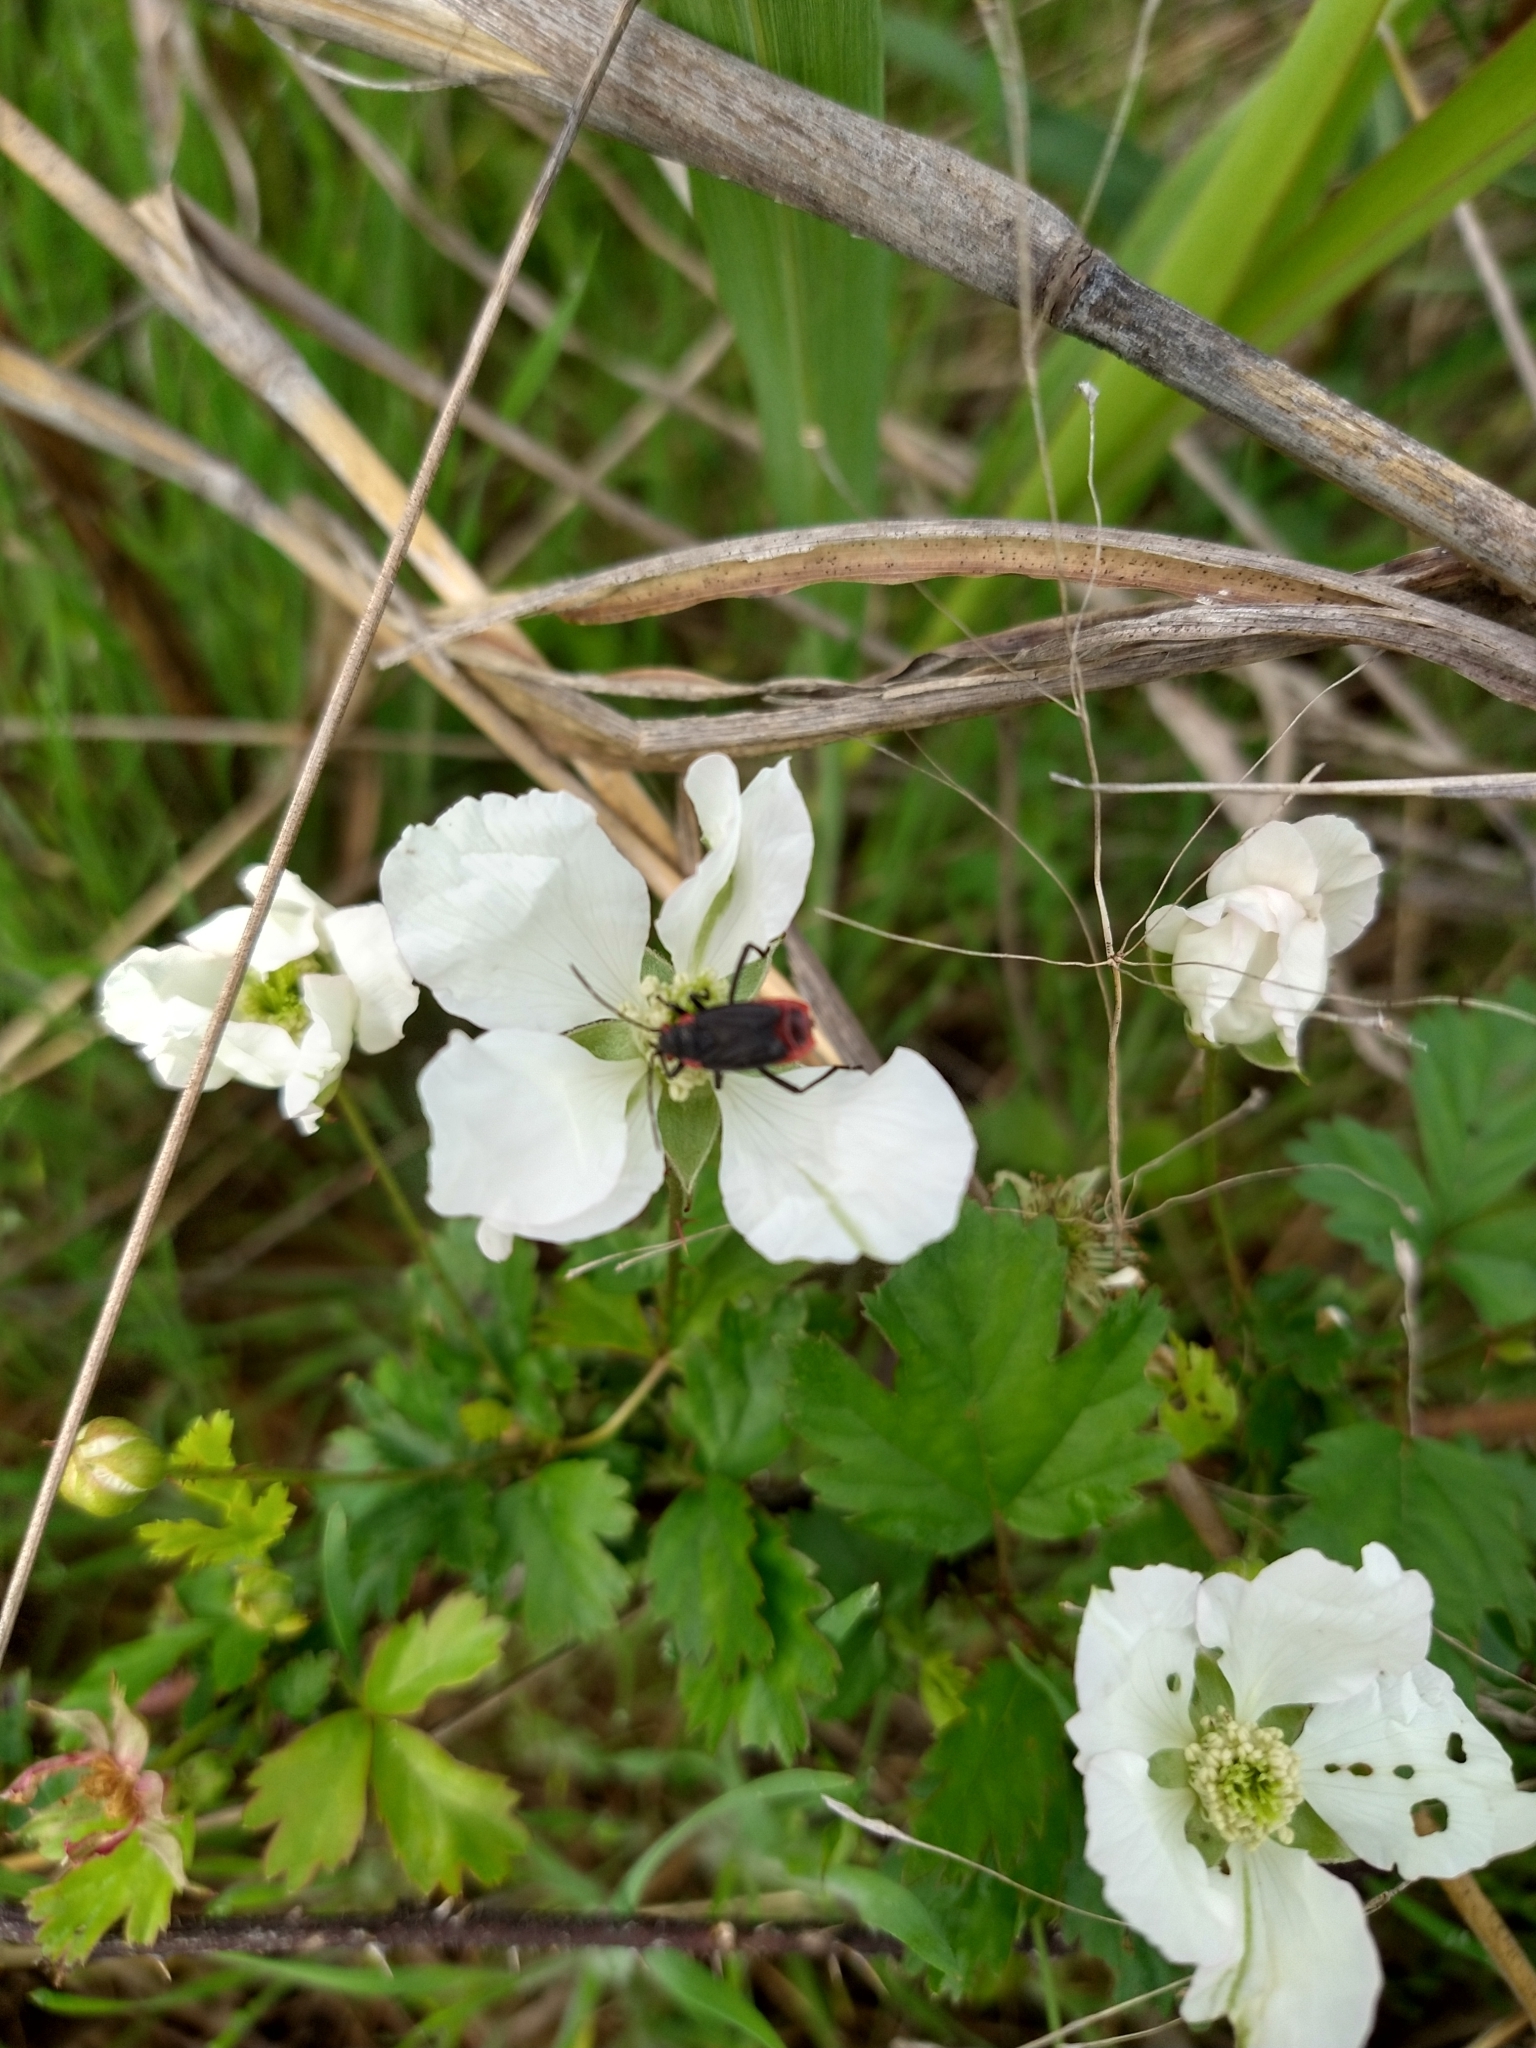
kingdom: Animalia
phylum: Arthropoda
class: Insecta
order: Hemiptera
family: Rhopalidae
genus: Jadera
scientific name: Jadera haematoloma
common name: Red-shouldered bug
